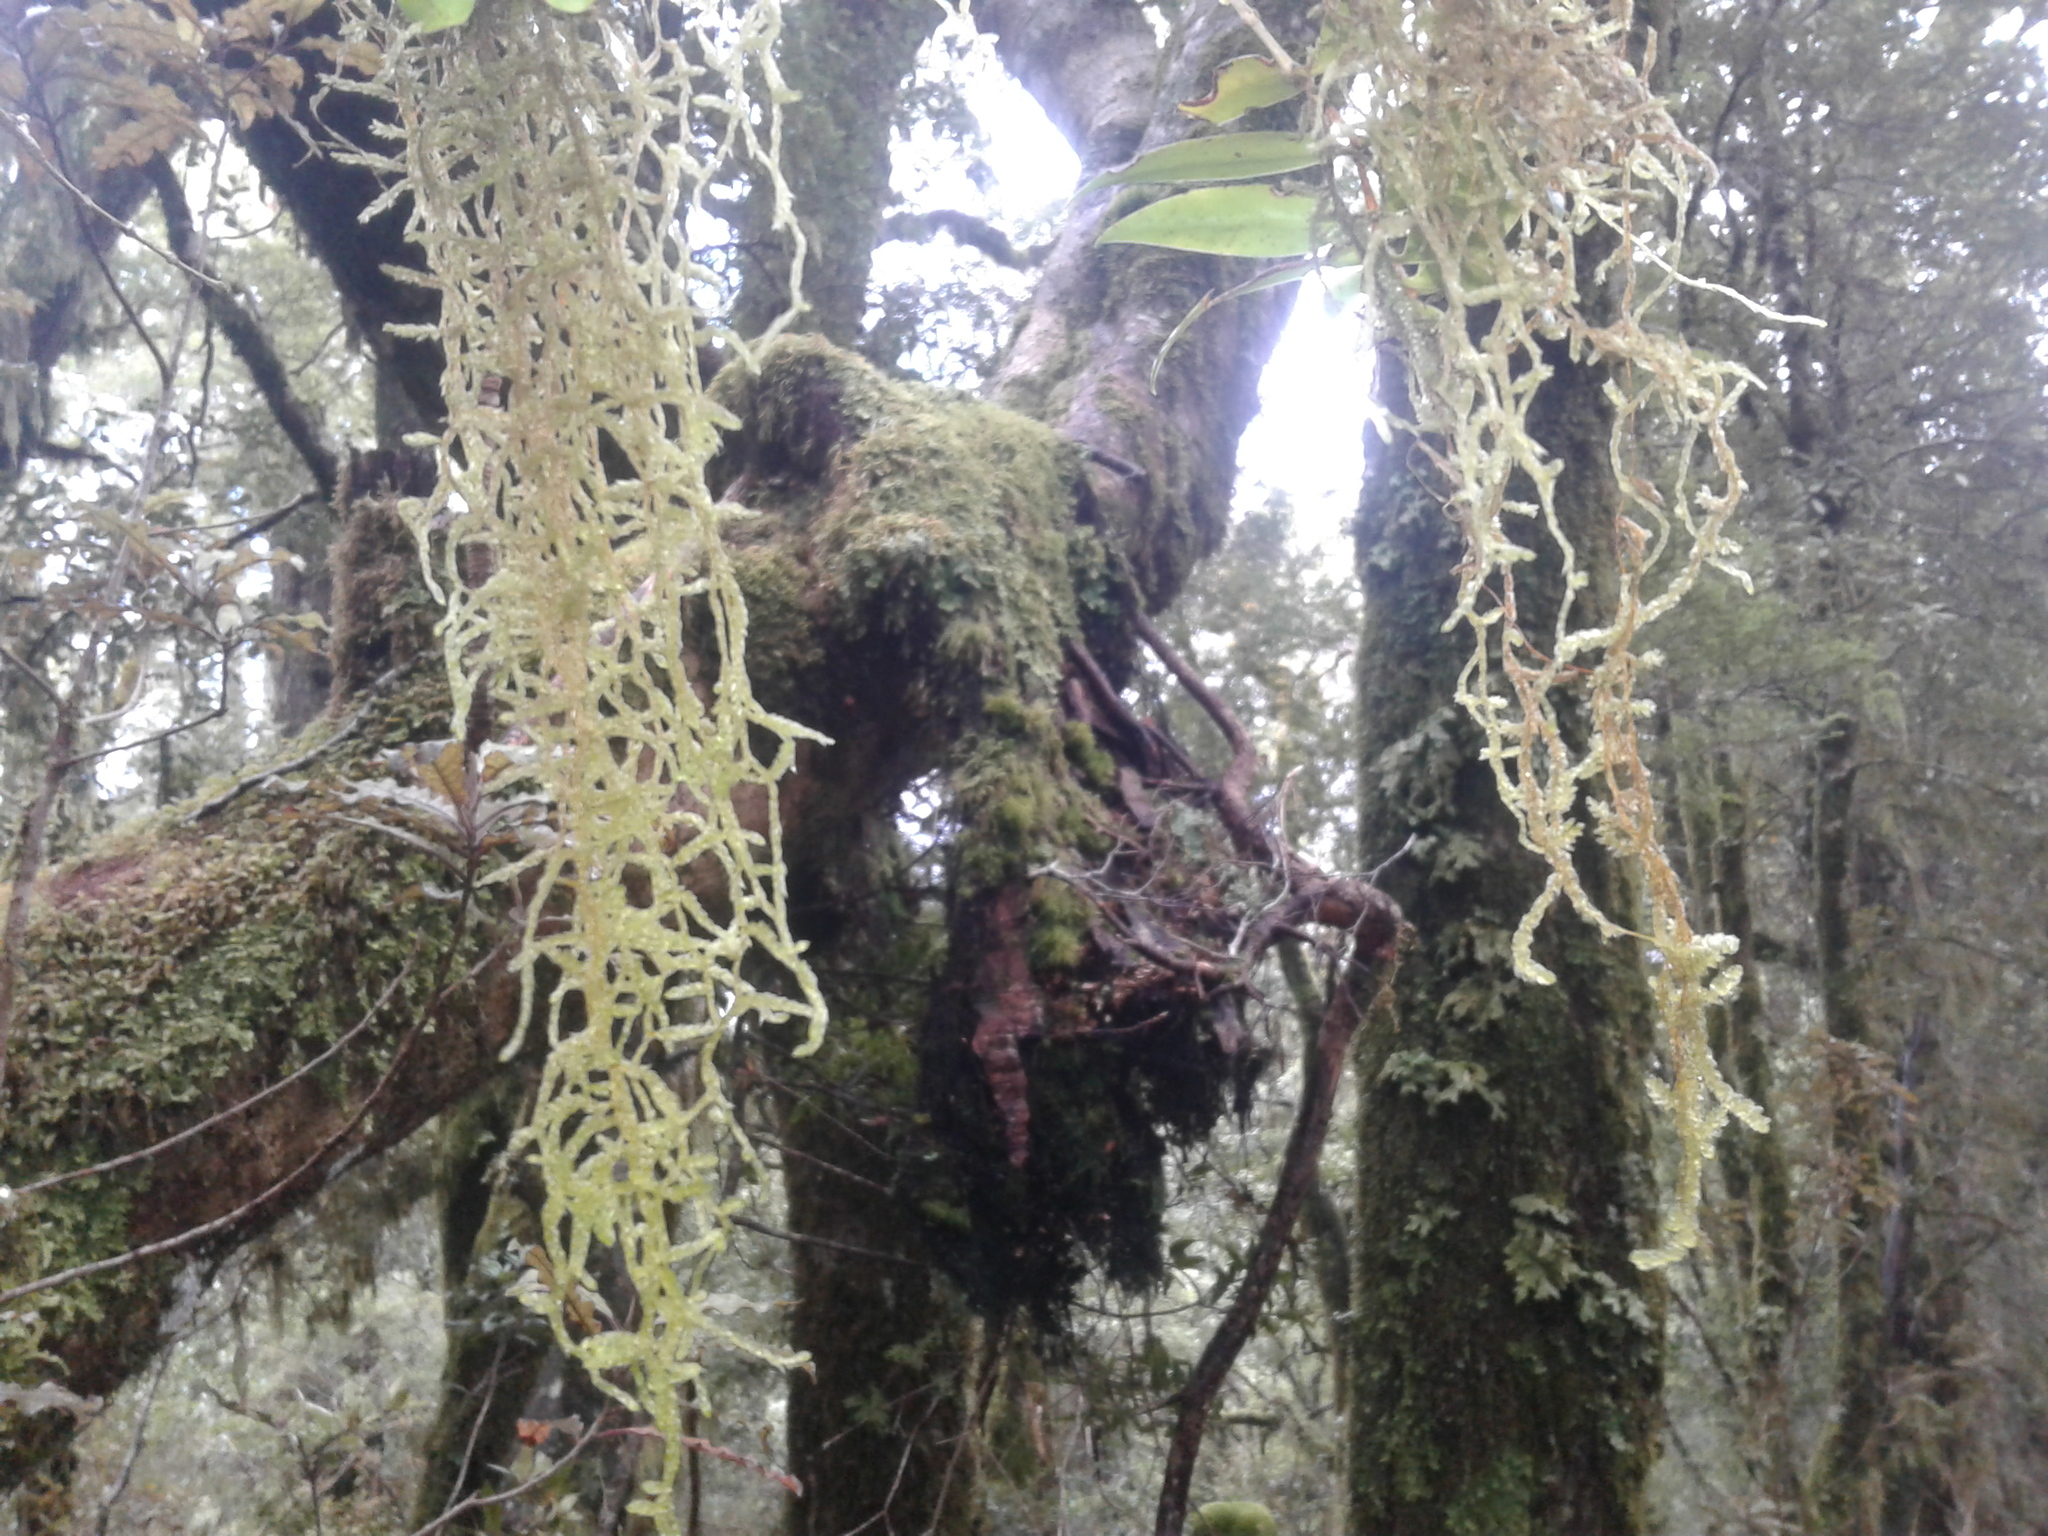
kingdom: Plantae
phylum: Bryophyta
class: Bryopsida
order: Hypnales
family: Lembophyllaceae
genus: Weymouthia
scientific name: Weymouthia mollis
